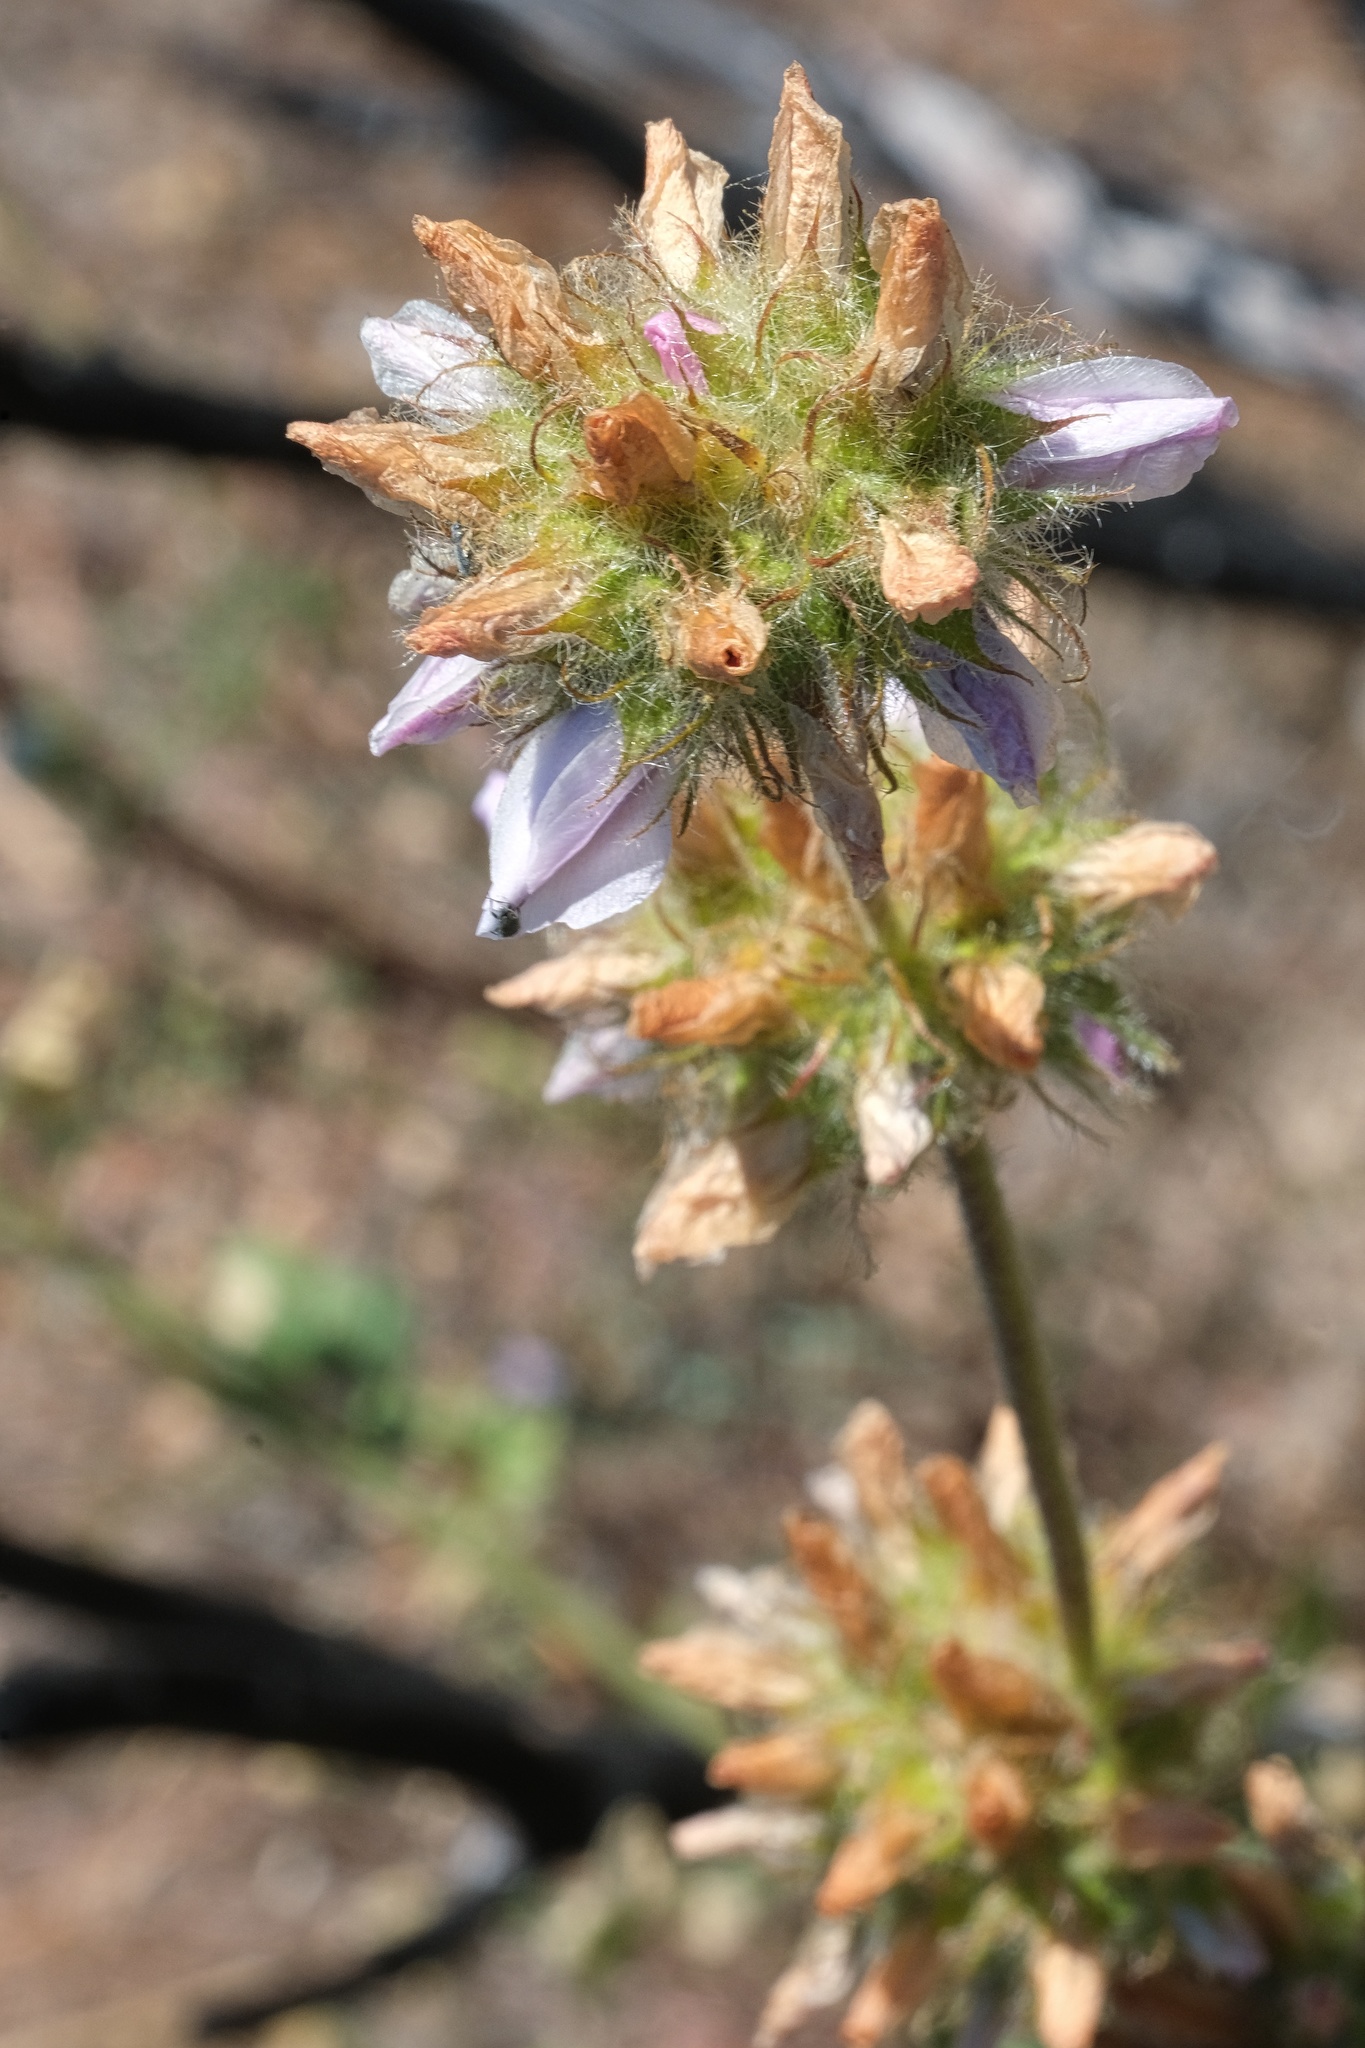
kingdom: Plantae
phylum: Tracheophyta
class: Magnoliopsida
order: Malvales
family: Malvaceae
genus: Malacothamnus
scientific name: Malacothamnus densiflorus
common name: Yellow-stem bush-mallow
